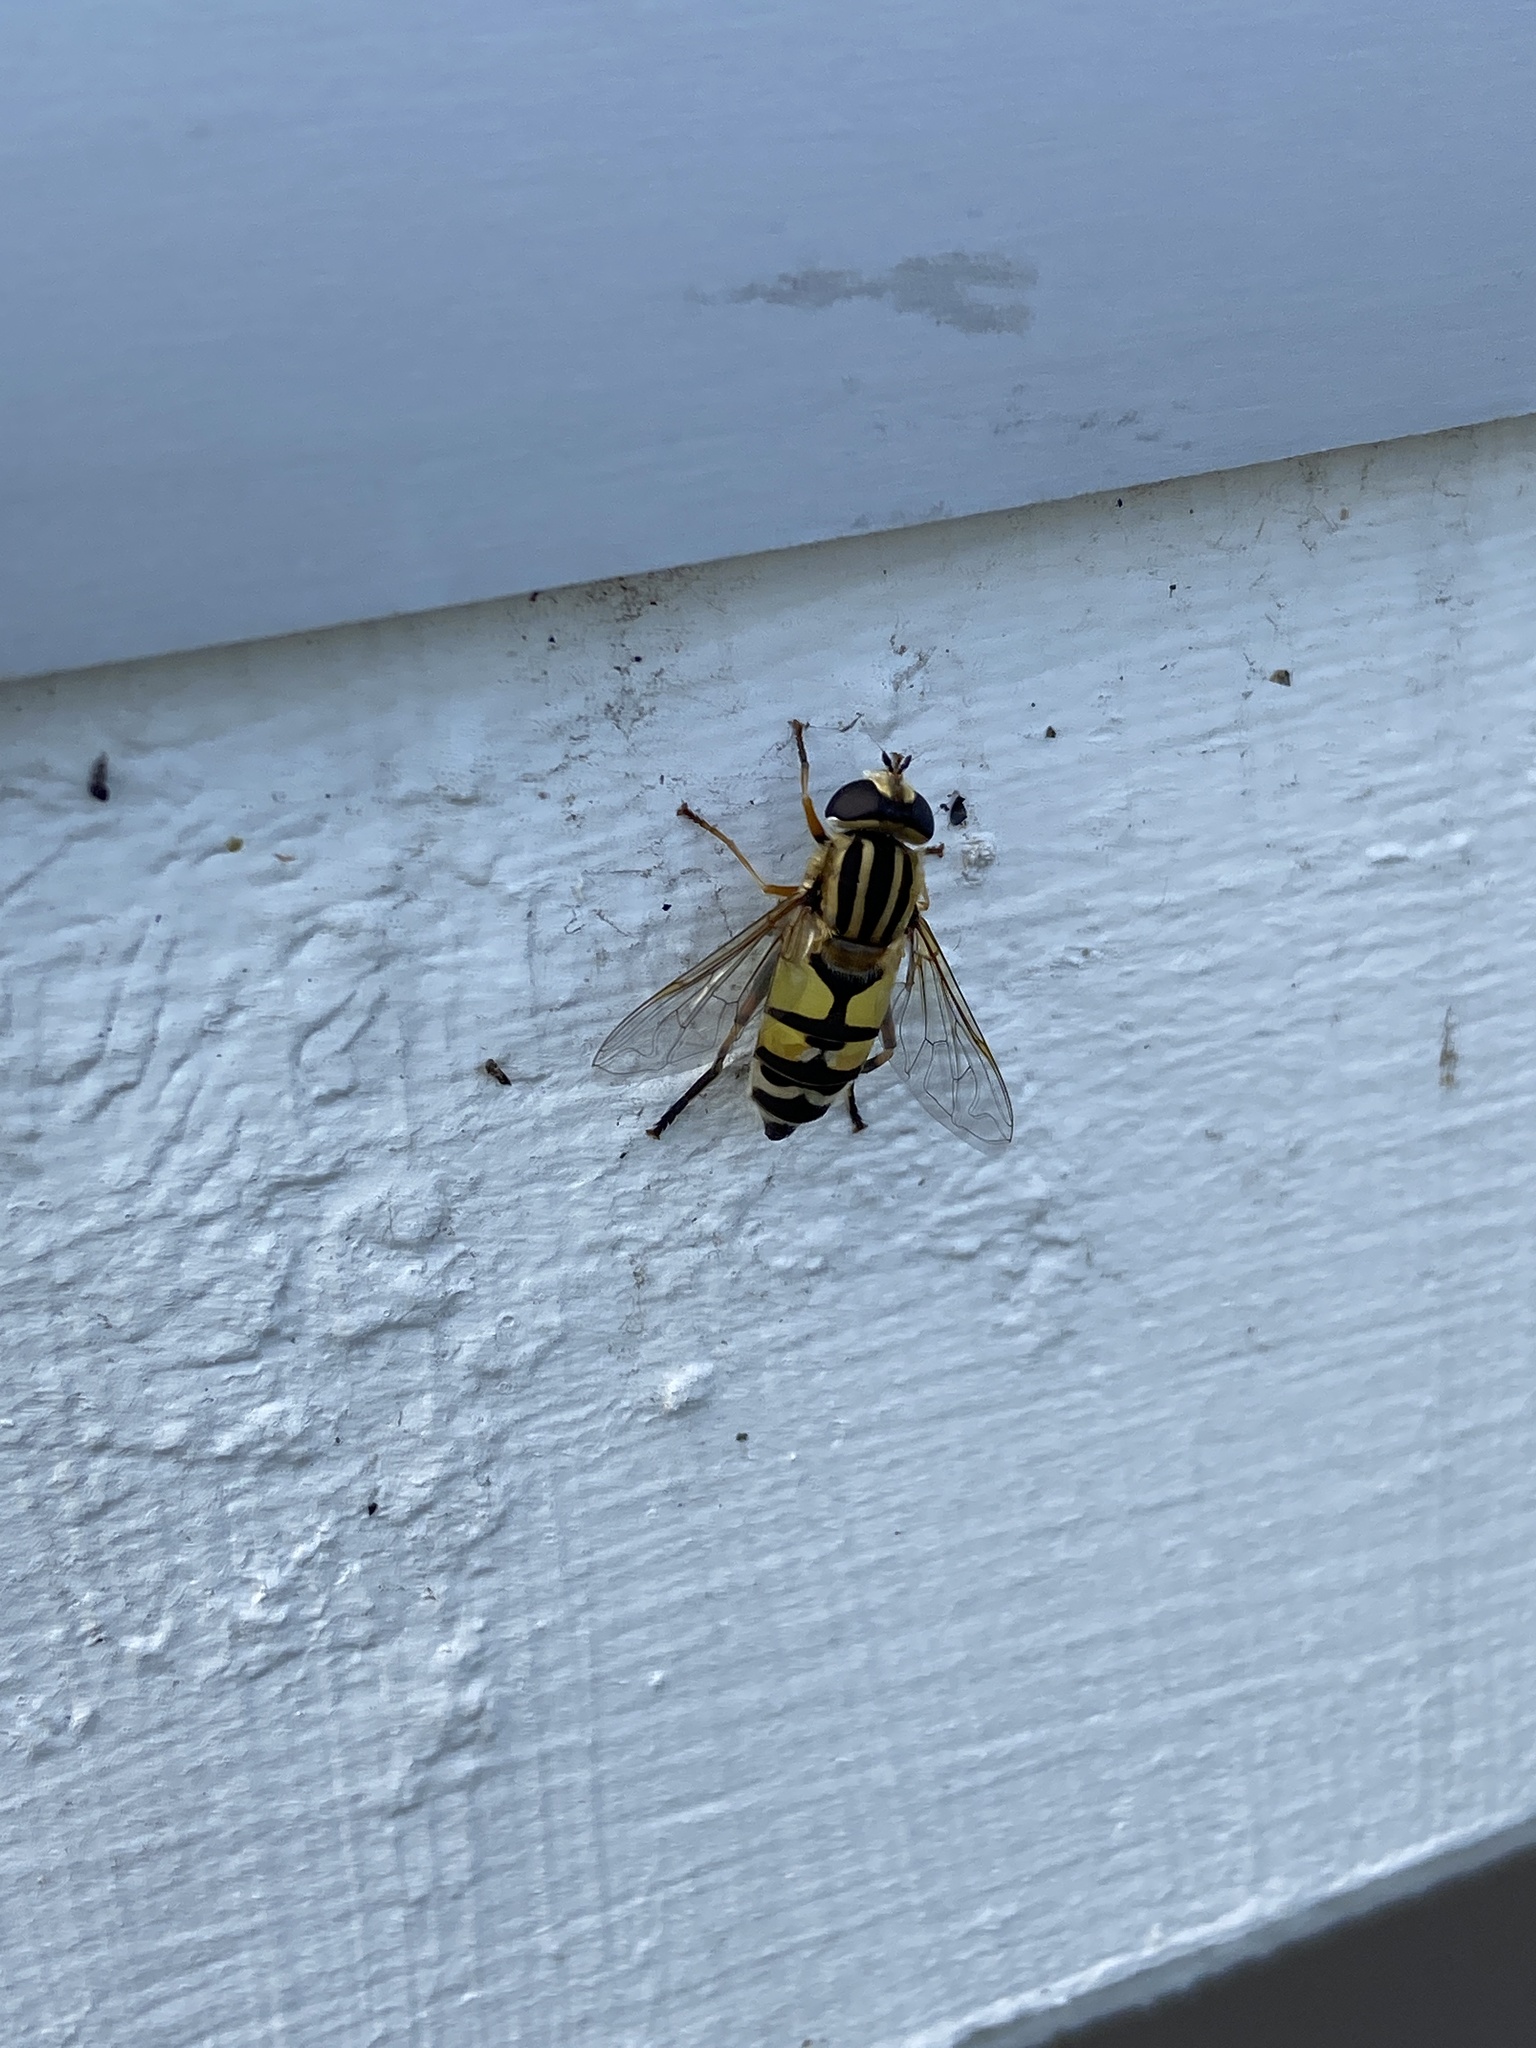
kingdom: Animalia
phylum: Arthropoda
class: Insecta
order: Diptera
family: Syrphidae
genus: Helophilus
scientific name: Helophilus trivittatus
